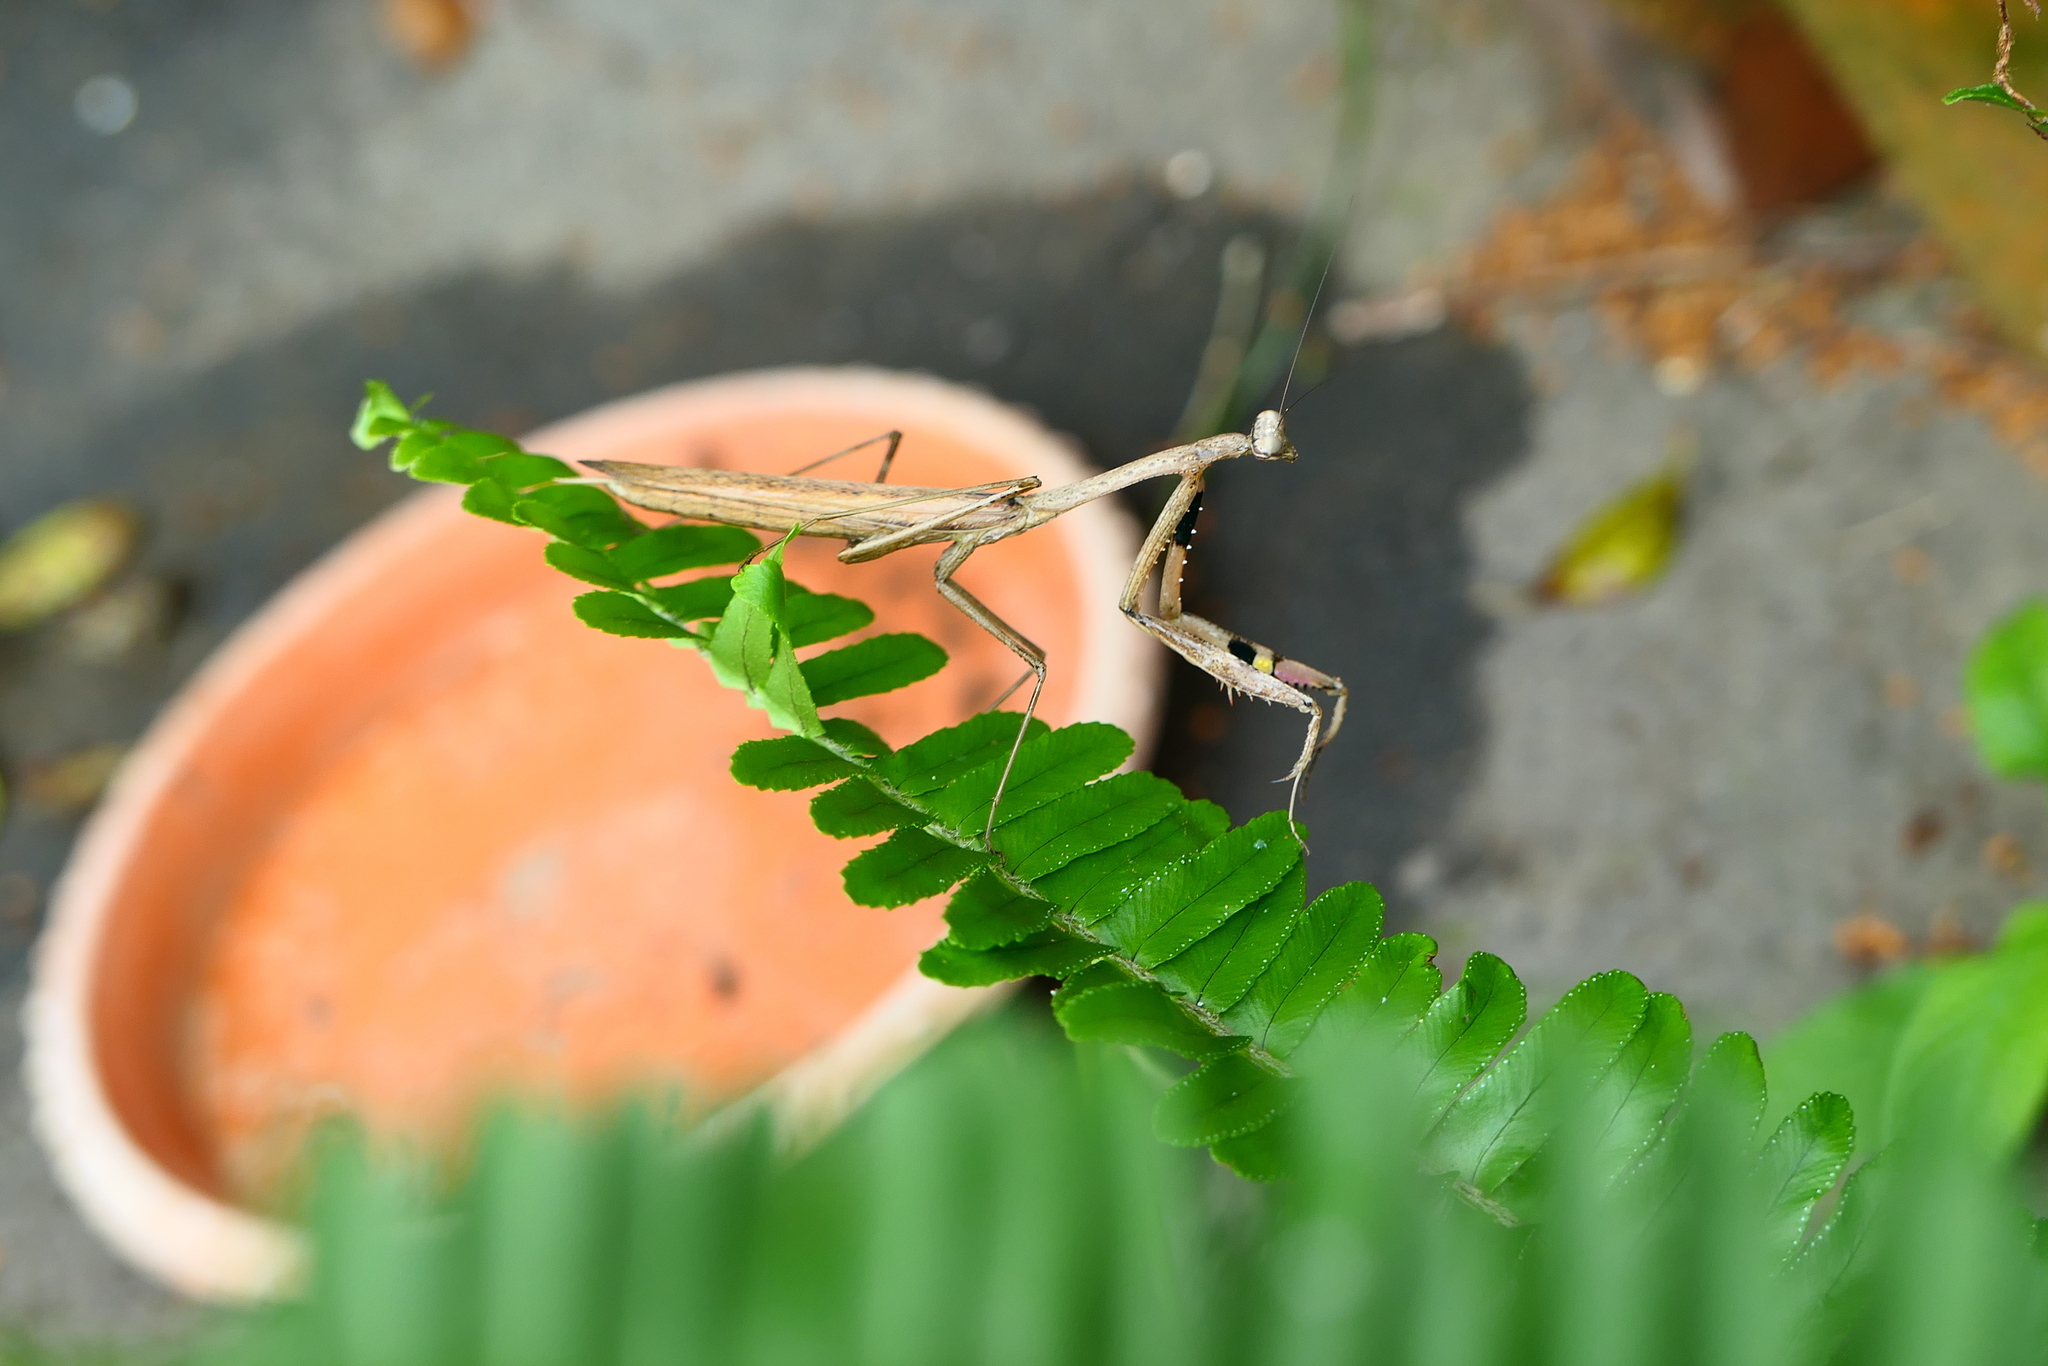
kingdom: Animalia
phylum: Arthropoda
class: Insecta
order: Mantodea
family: Mantidae
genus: Statilia
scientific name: Statilia maculata
